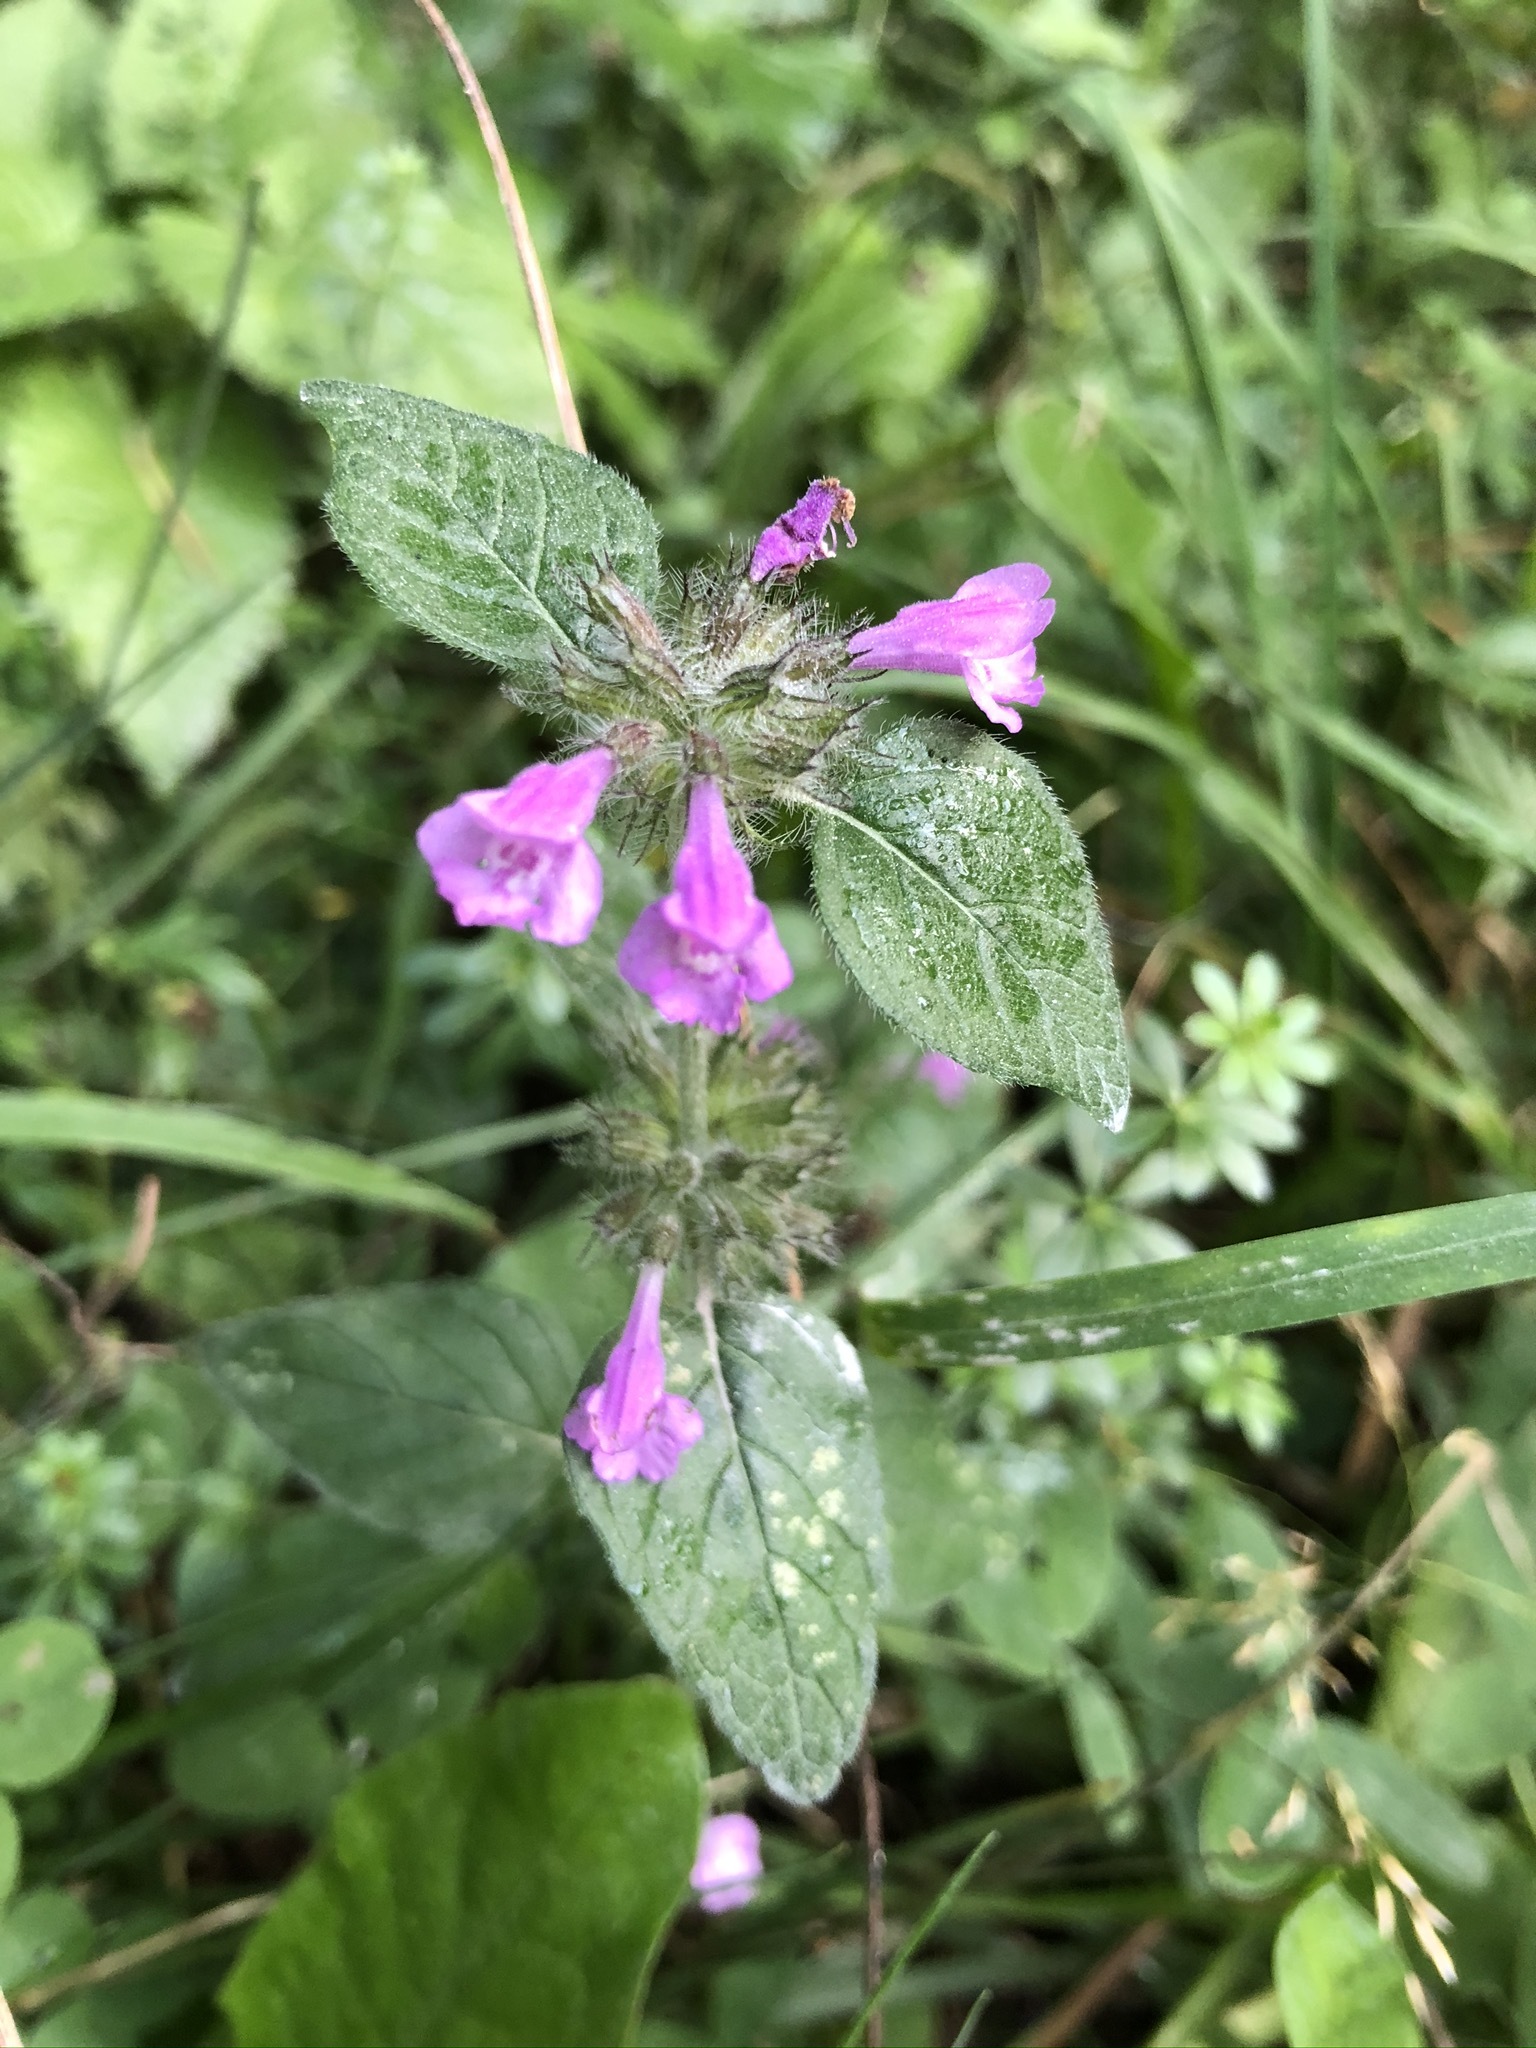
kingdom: Plantae
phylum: Tracheophyta
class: Magnoliopsida
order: Lamiales
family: Lamiaceae
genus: Clinopodium
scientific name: Clinopodium vulgare
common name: Wild basil
